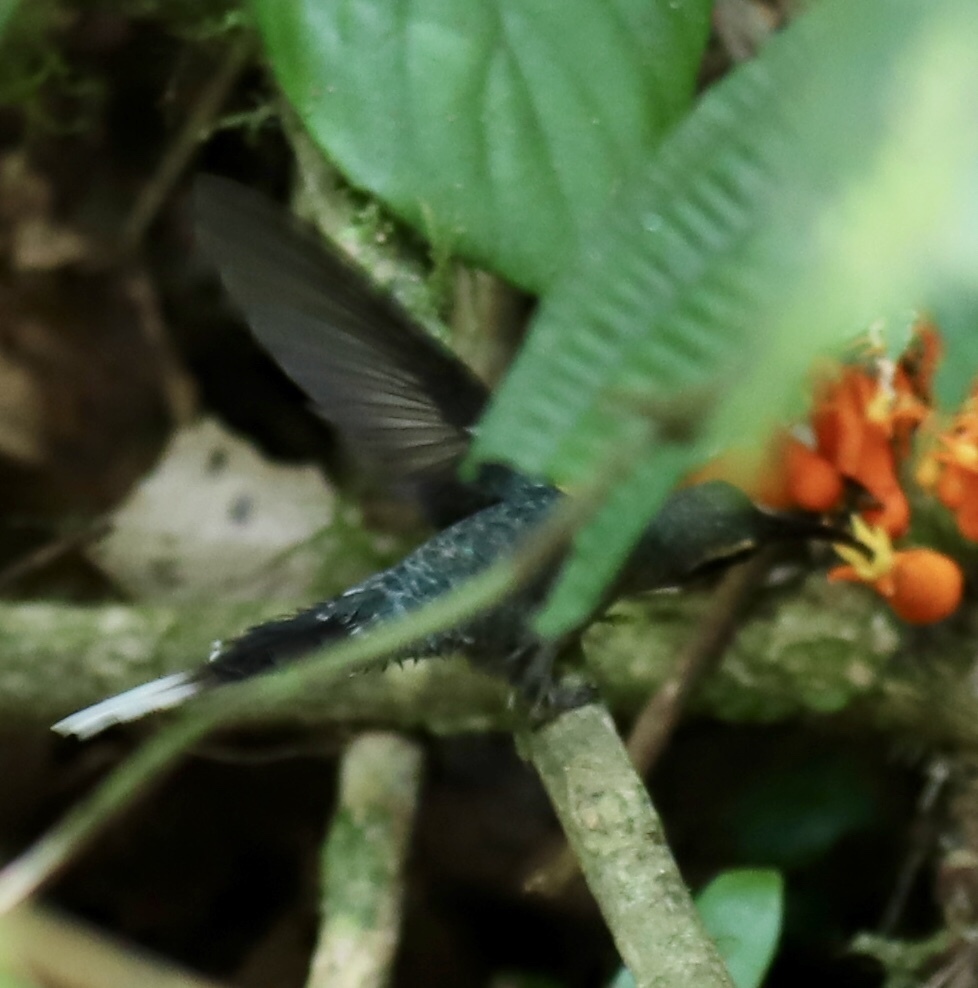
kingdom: Animalia
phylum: Chordata
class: Aves
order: Apodiformes
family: Trochilidae
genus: Phaethornis
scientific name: Phaethornis guy
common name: Green hermit
